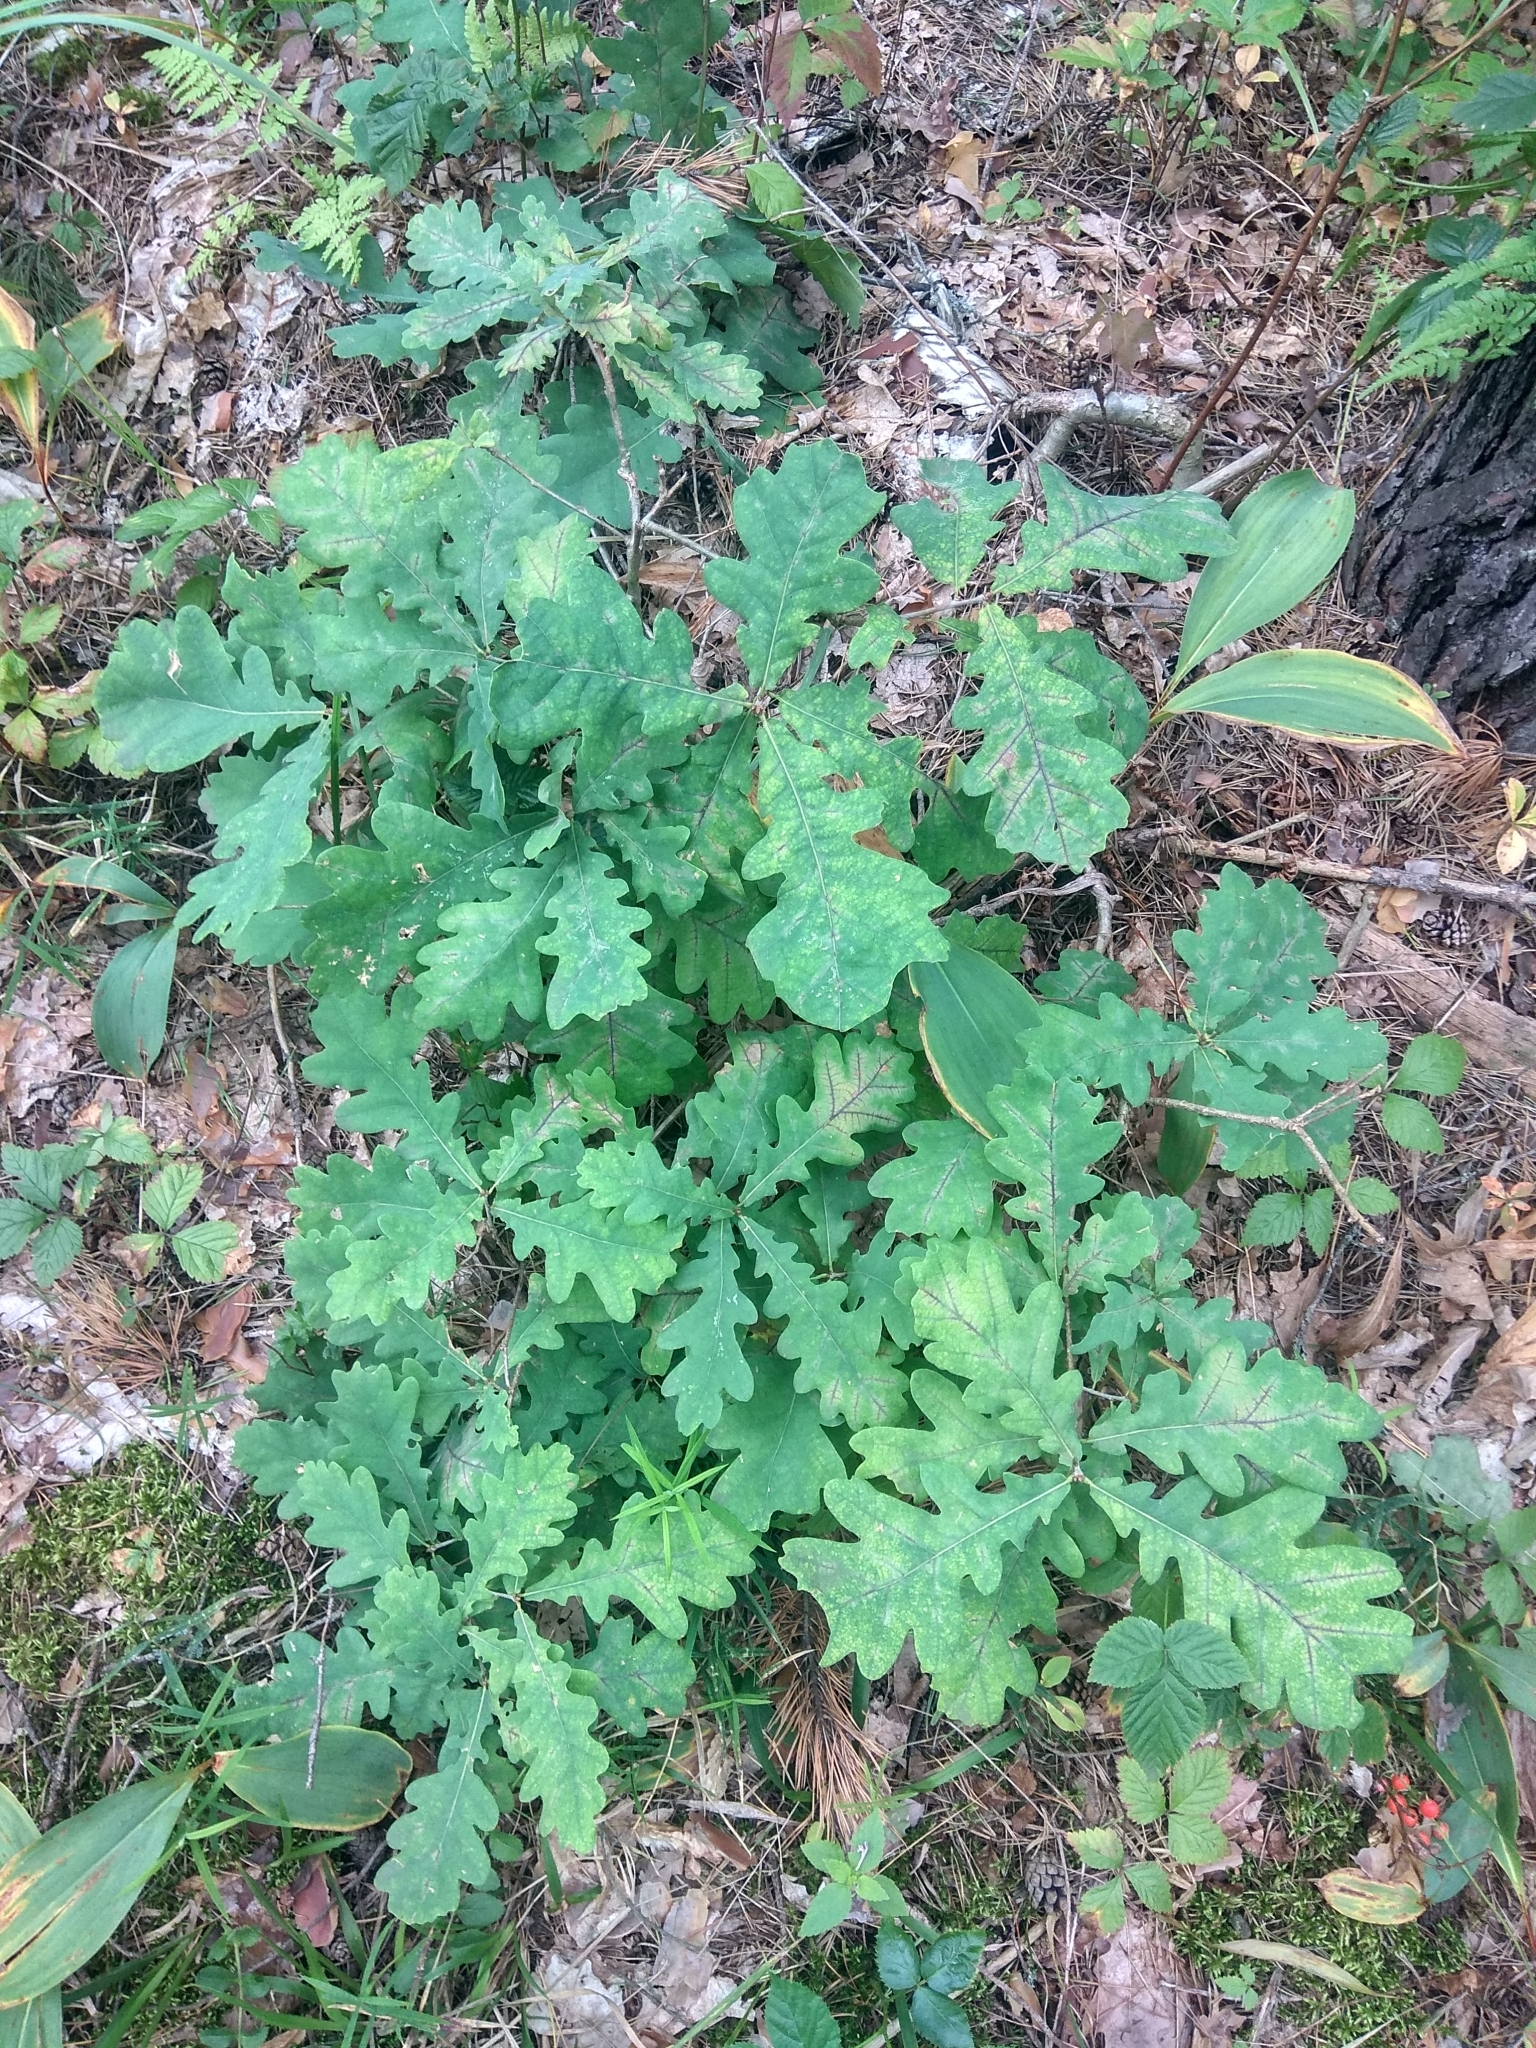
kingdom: Plantae
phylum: Tracheophyta
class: Magnoliopsida
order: Fagales
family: Fagaceae
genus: Quercus
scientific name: Quercus robur
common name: Pedunculate oak
